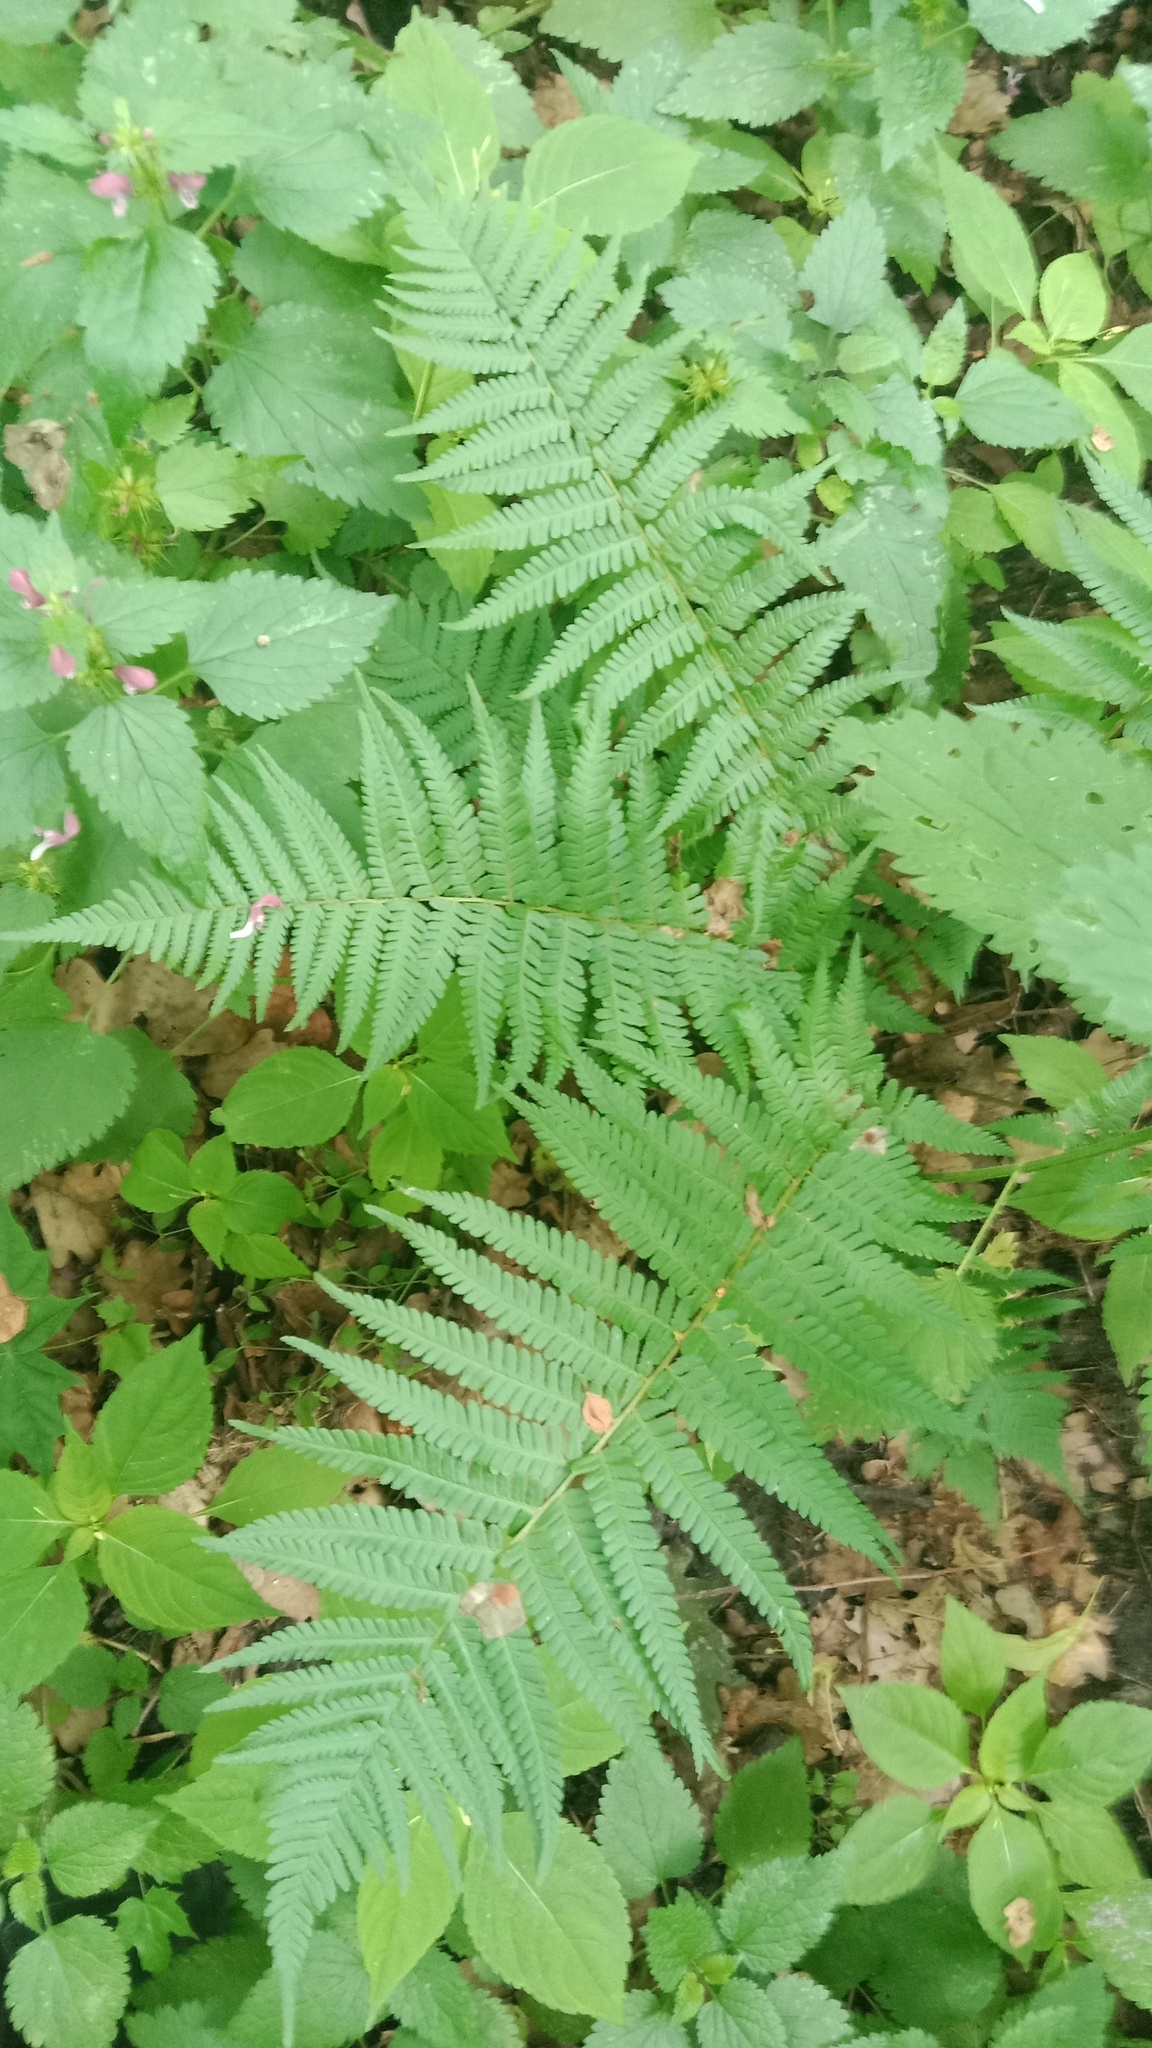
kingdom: Plantae
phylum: Tracheophyta
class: Polypodiopsida
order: Polypodiales
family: Dryopteridaceae
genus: Dryopteris
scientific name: Dryopteris filix-mas
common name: Male fern
